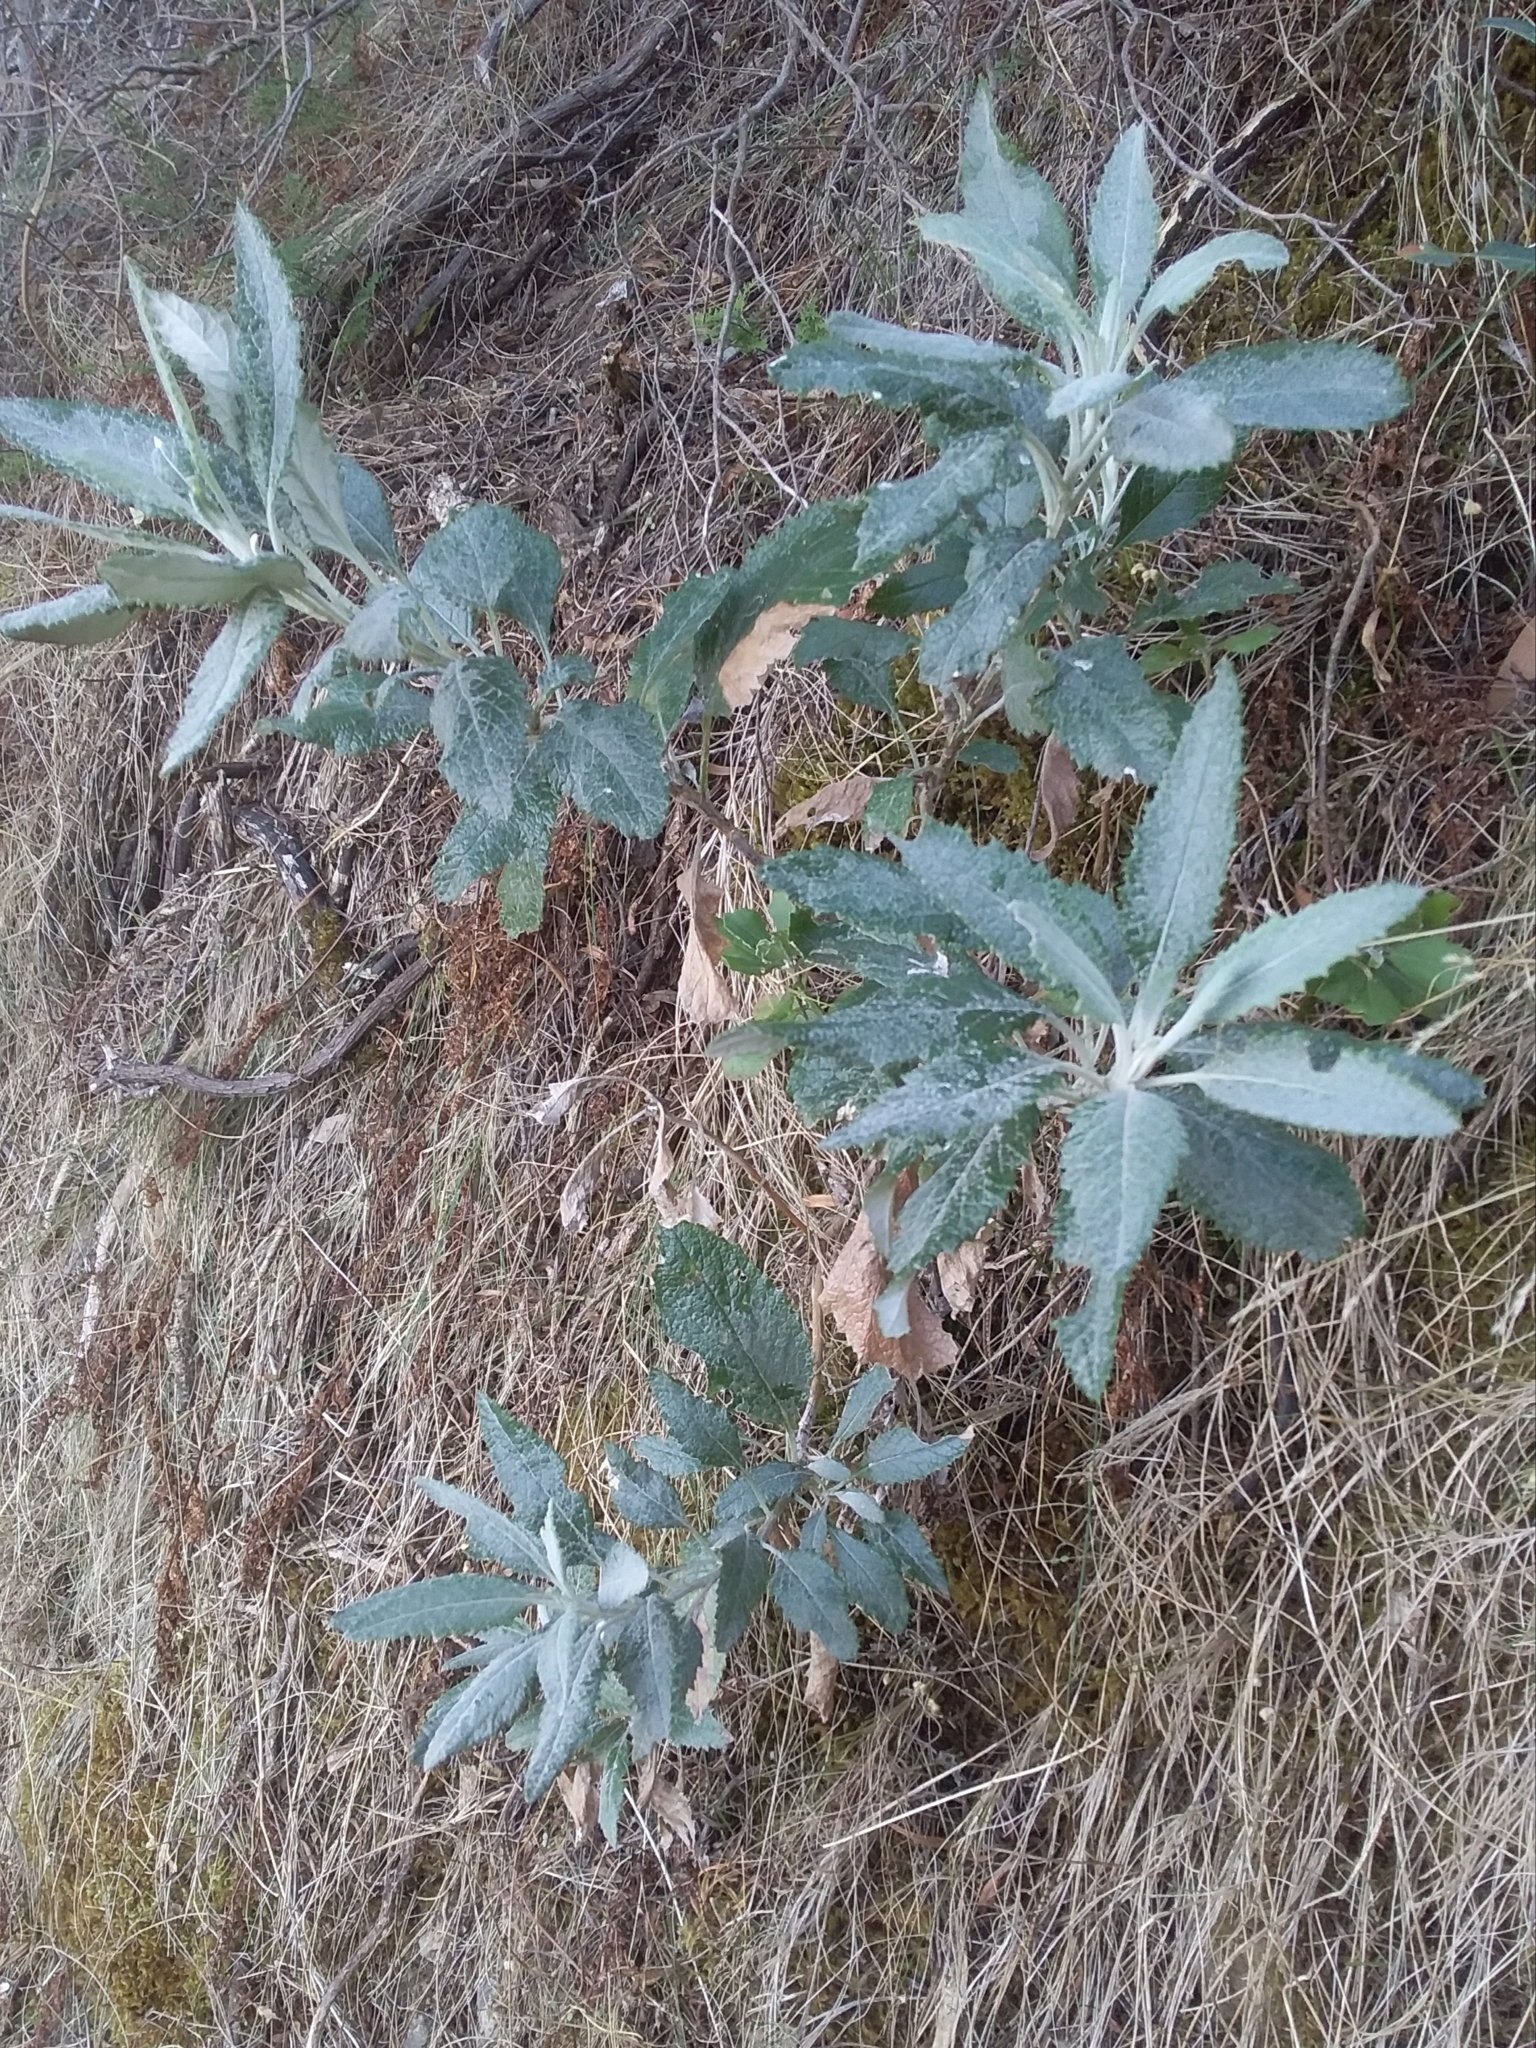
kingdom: Plantae
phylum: Tracheophyta
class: Magnoliopsida
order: Asterales
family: Asteraceae
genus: Senecio
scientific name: Senecio hypoleucus
